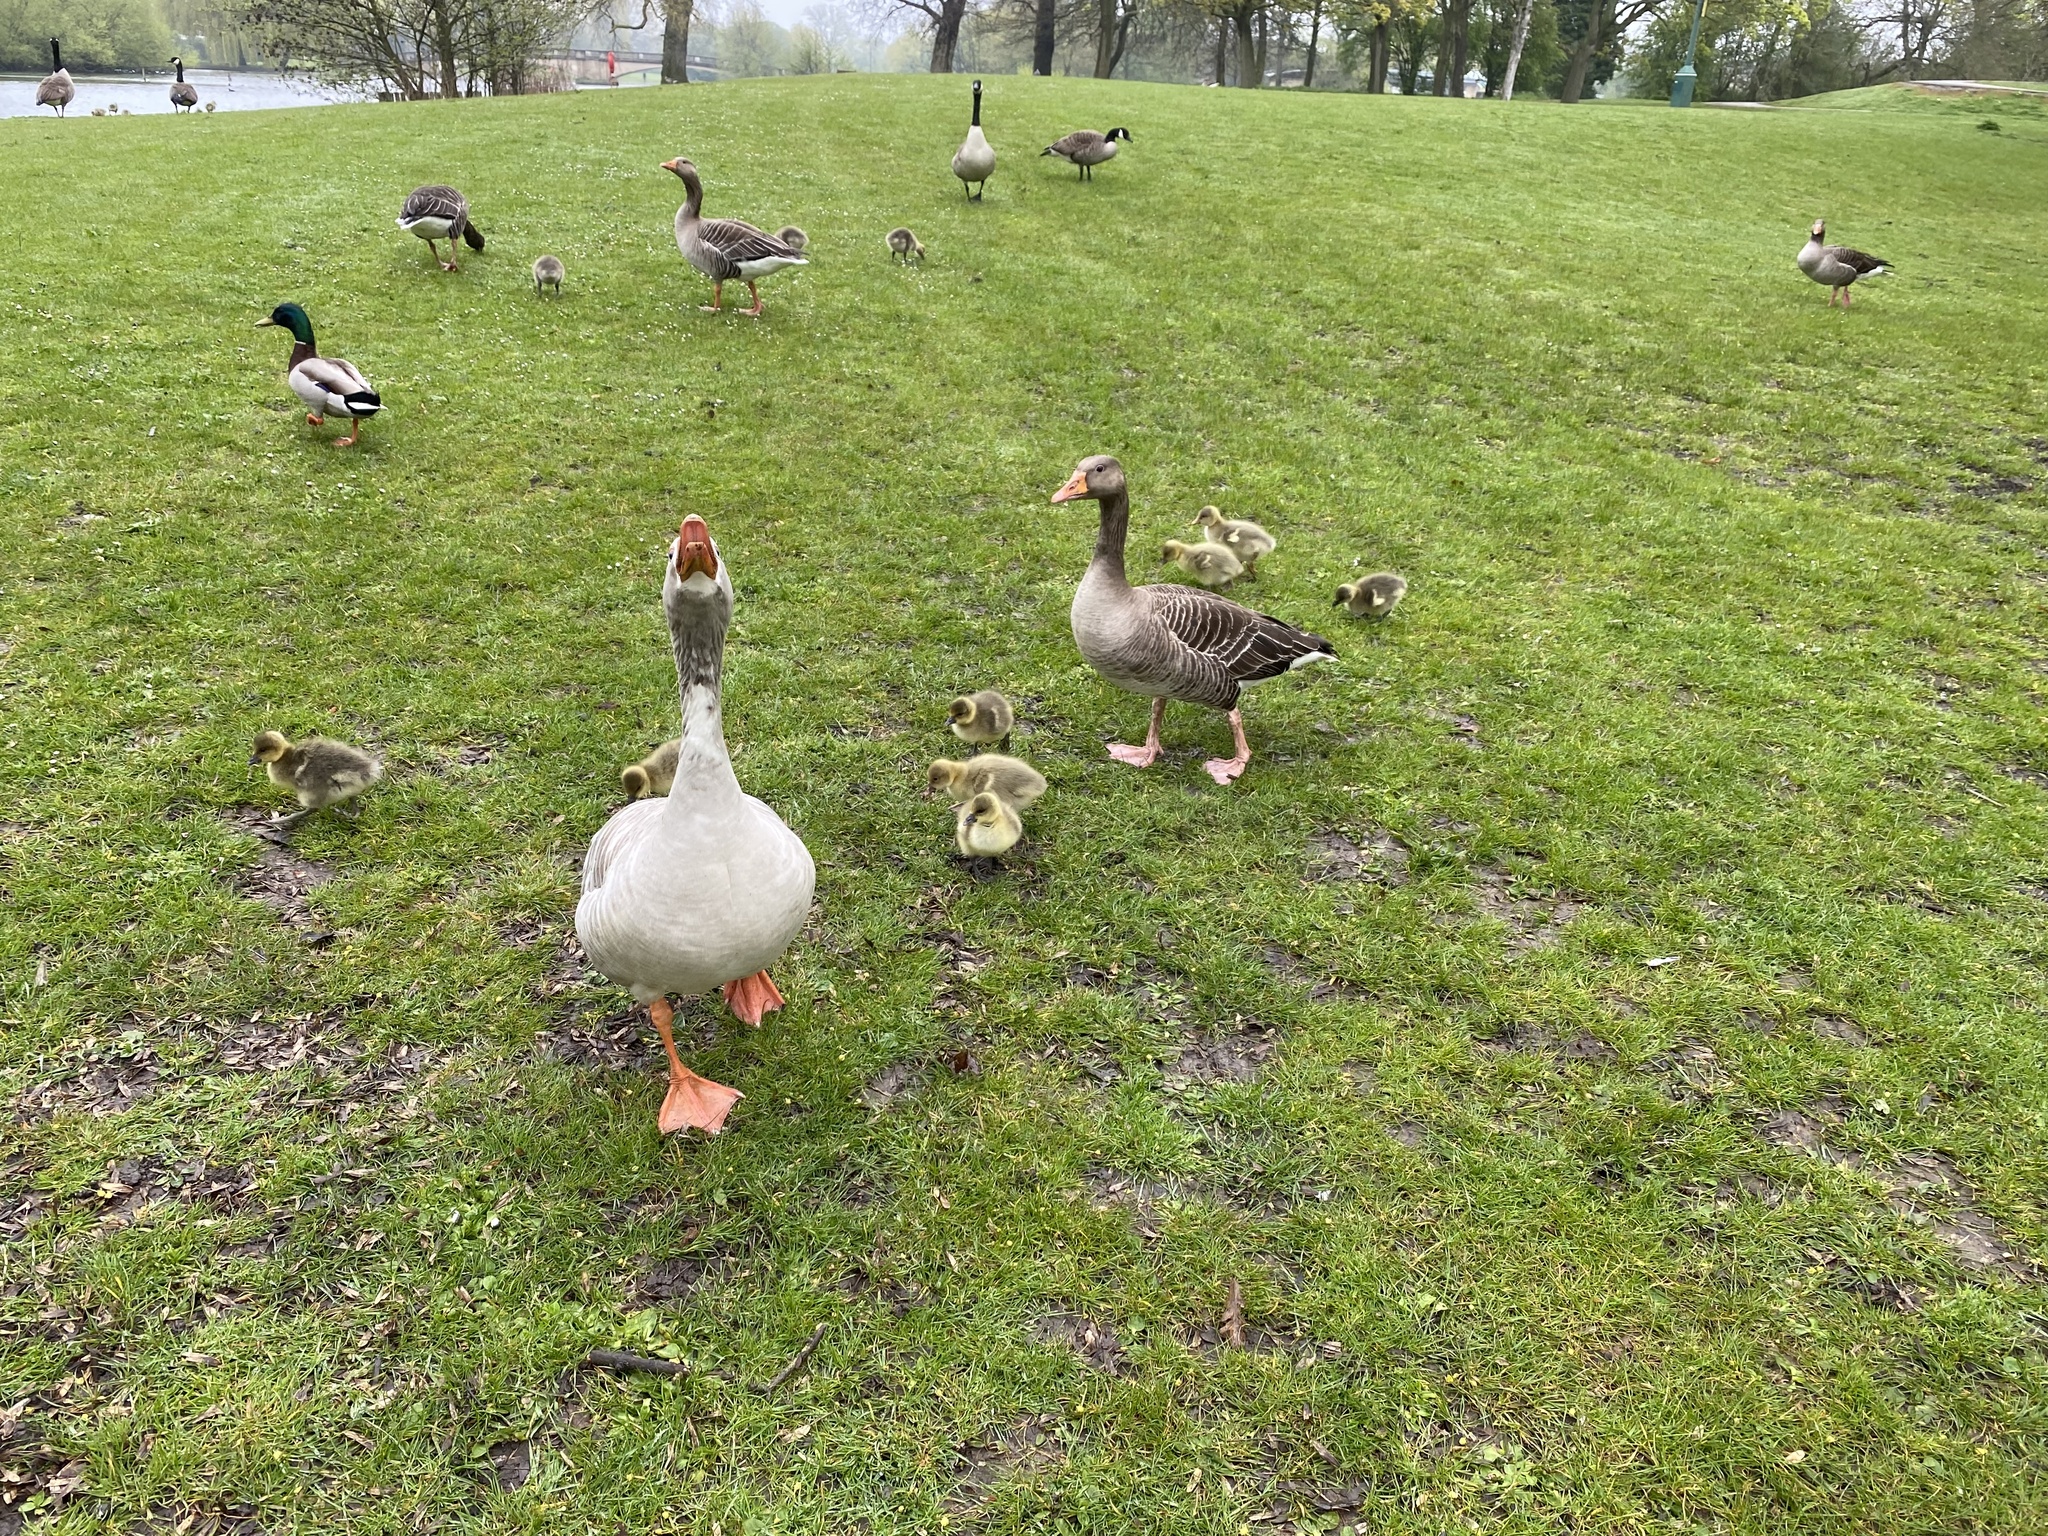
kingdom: Animalia
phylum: Chordata
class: Aves
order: Anseriformes
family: Anatidae
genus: Anser
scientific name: Anser anser
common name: Greylag goose
